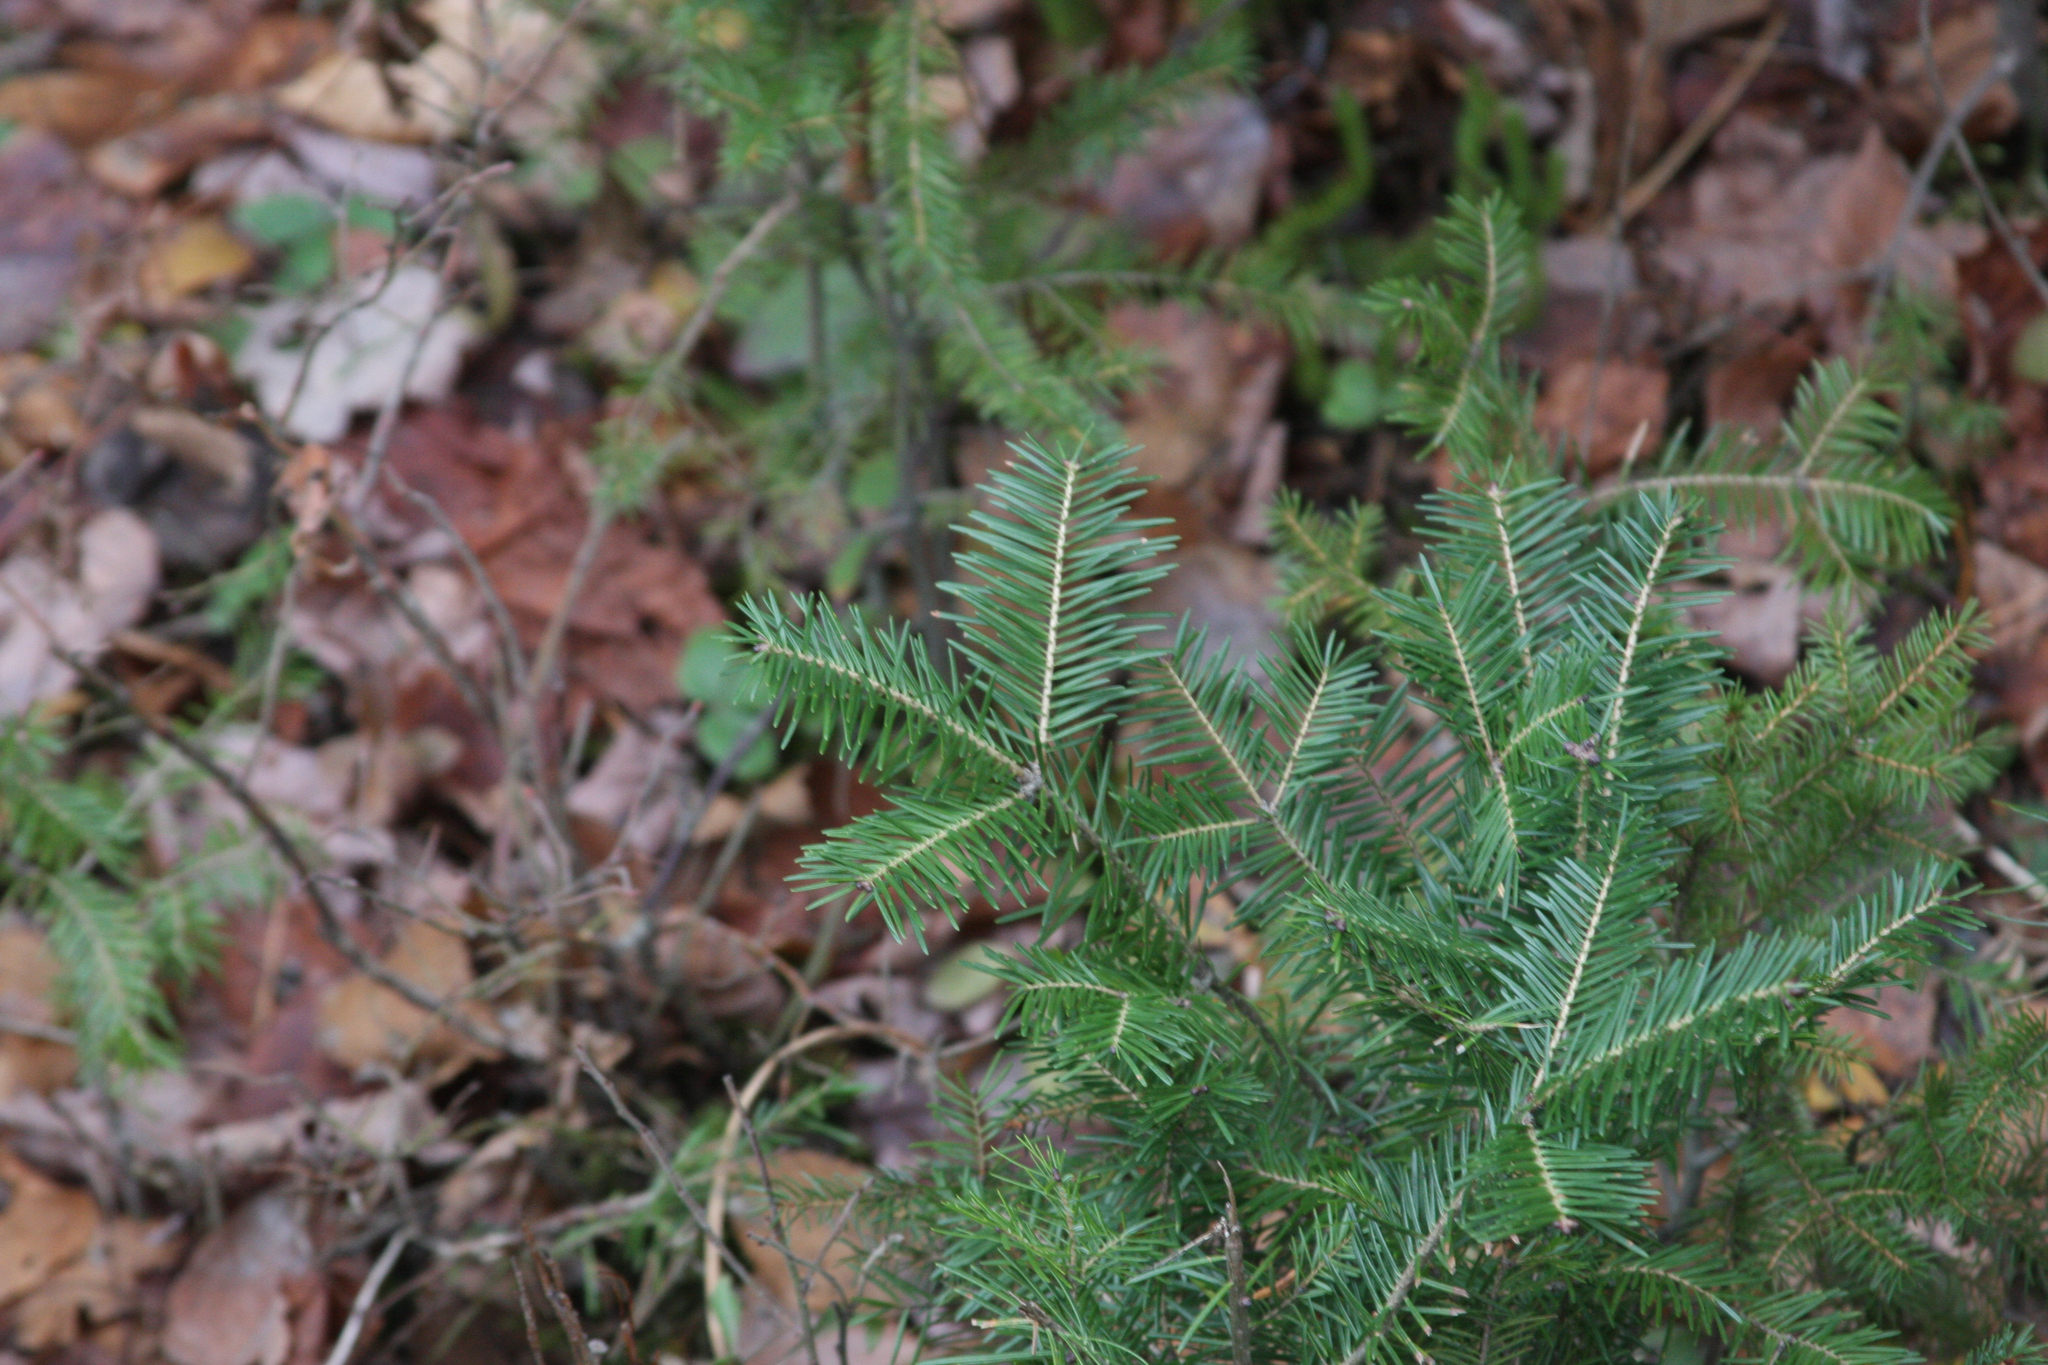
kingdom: Plantae
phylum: Tracheophyta
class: Pinopsida
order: Pinales
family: Pinaceae
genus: Abies
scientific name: Abies balsamea
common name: Balsam fir
